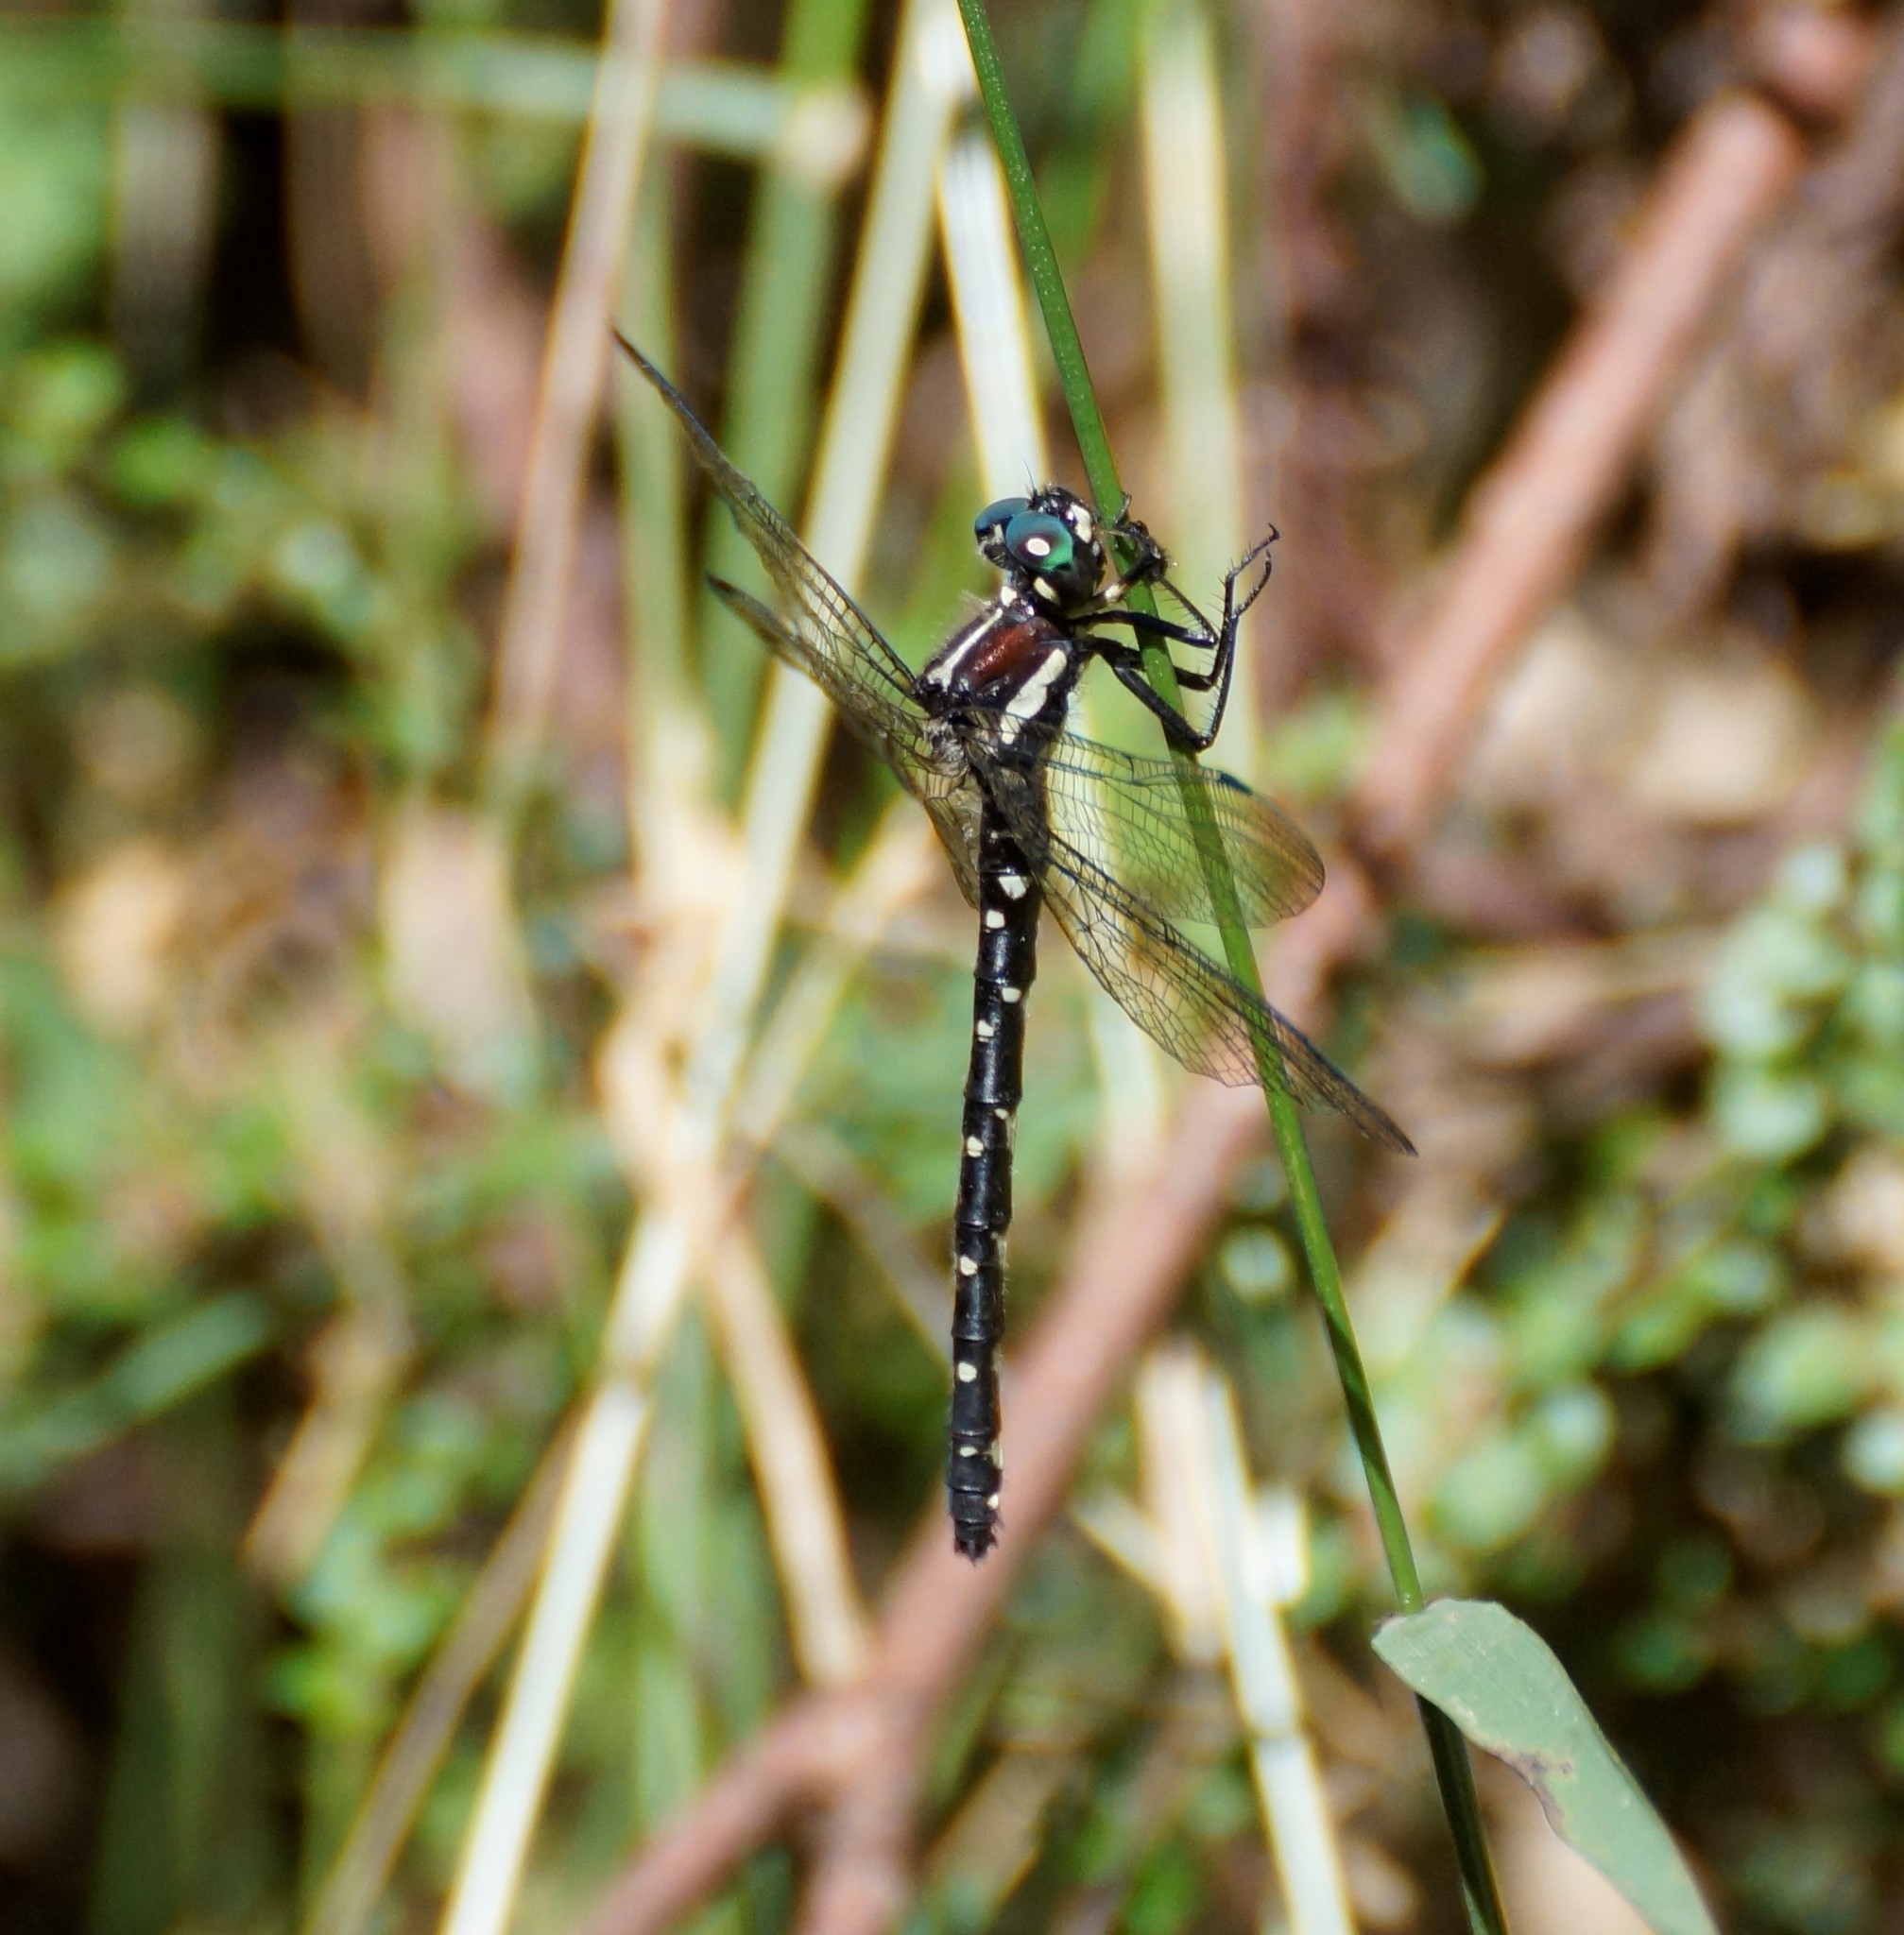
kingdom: Animalia
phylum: Arthropoda
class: Insecta
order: Odonata
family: Synthemistidae
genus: Eusynthemis
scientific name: Eusynthemis guttata
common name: Southern tigertail
